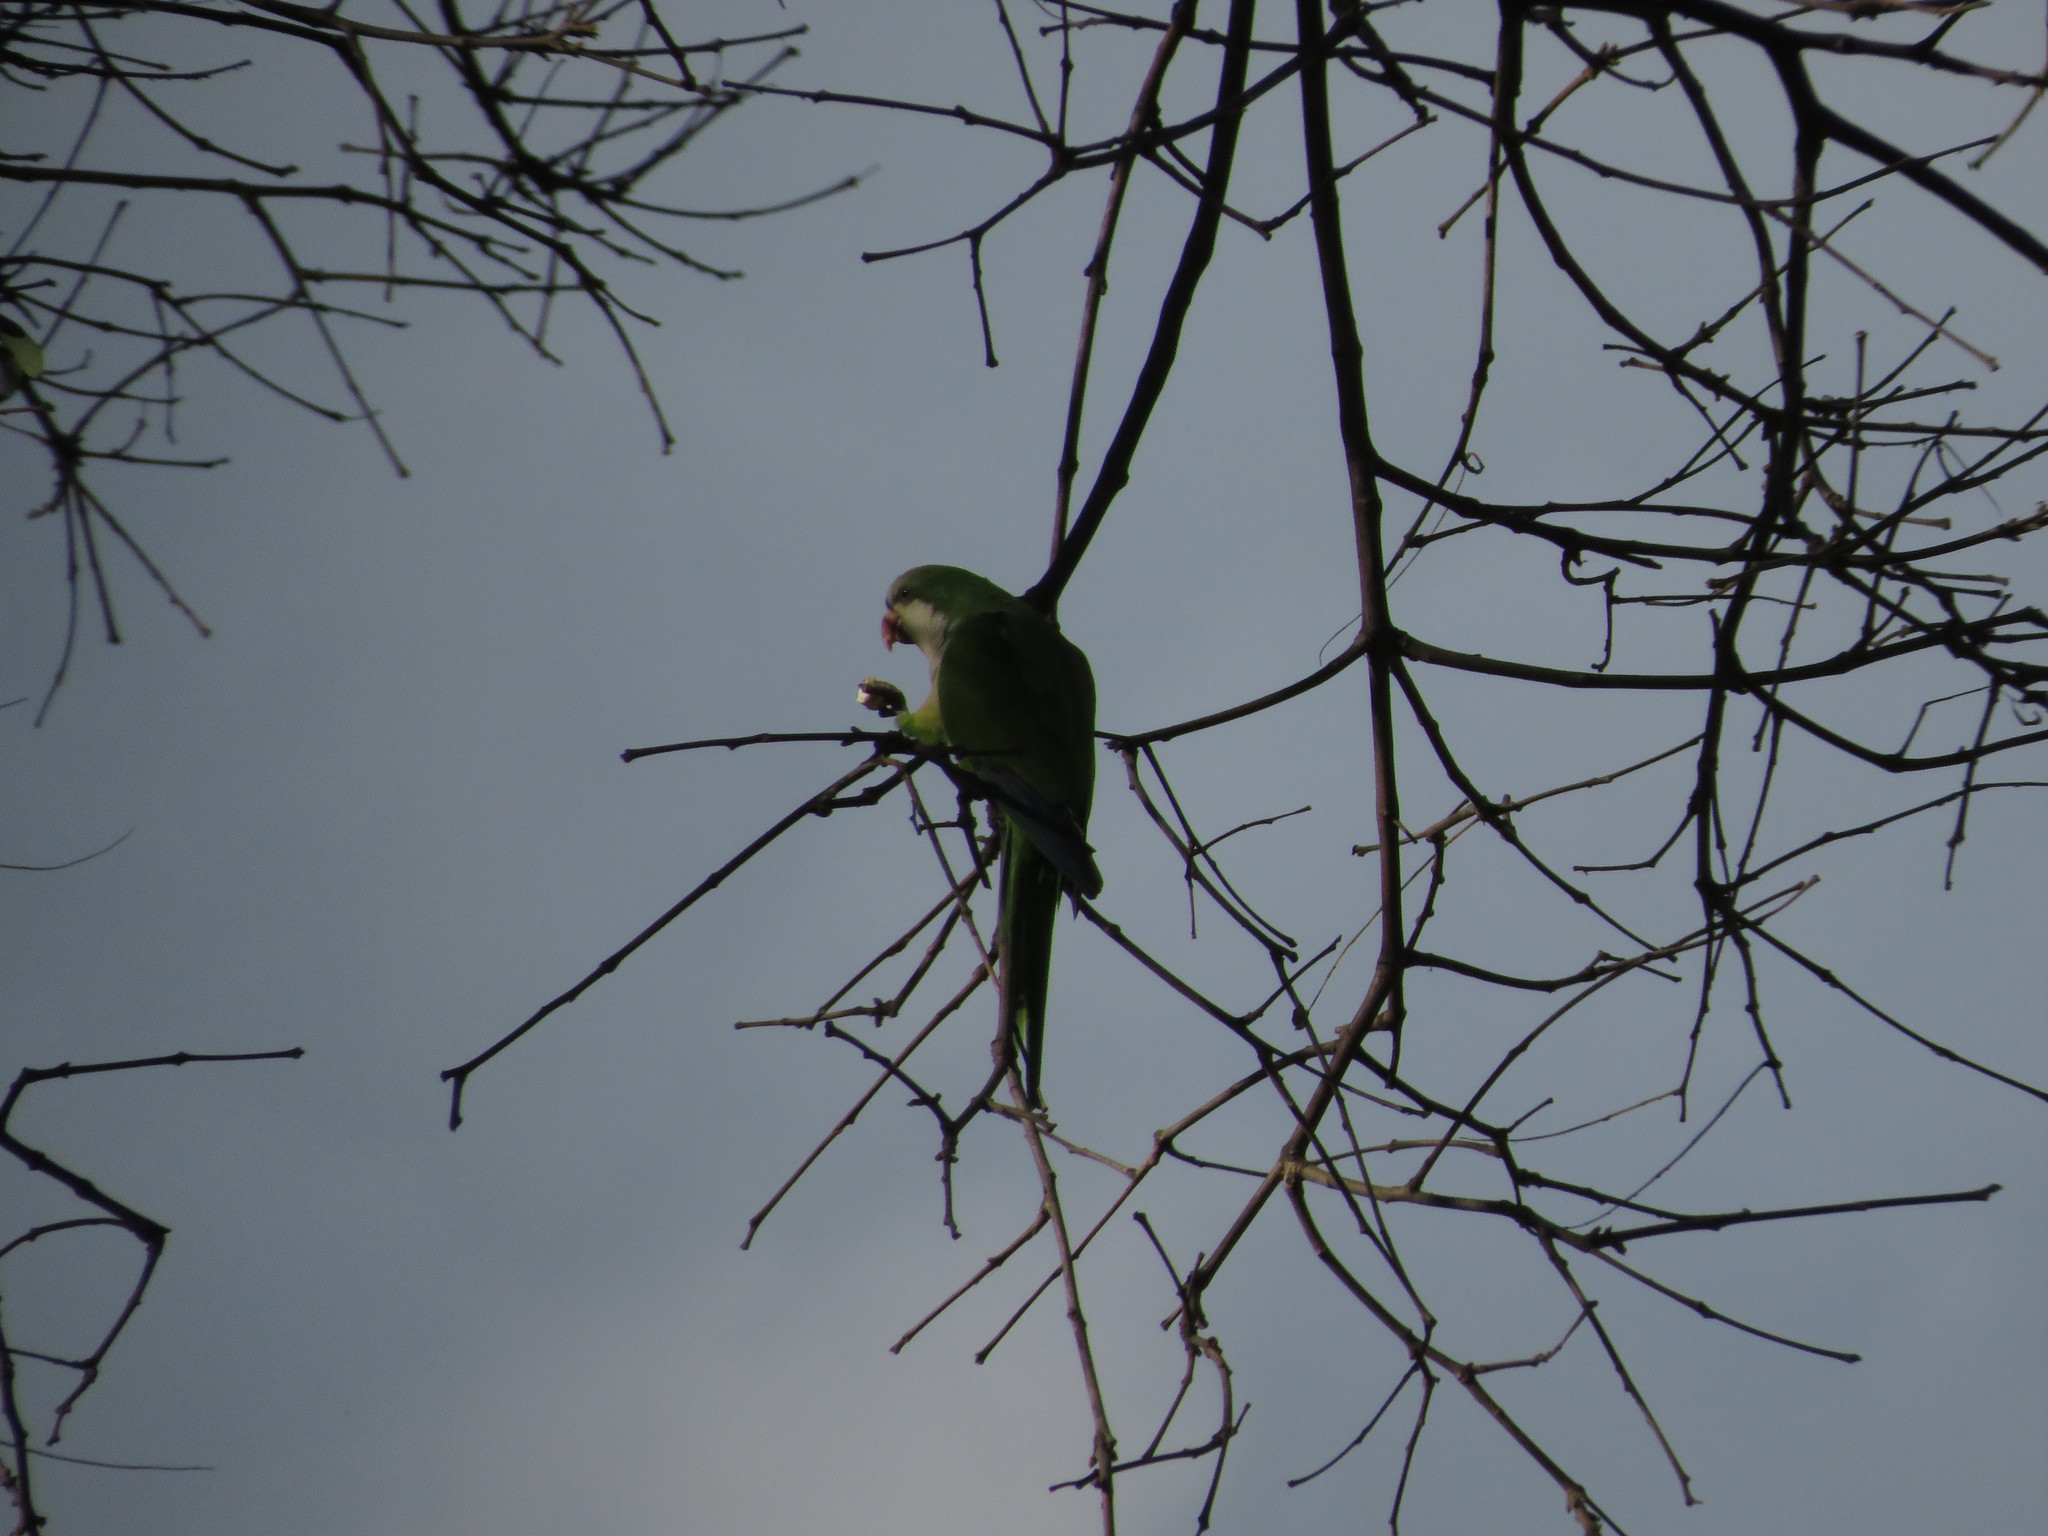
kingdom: Animalia
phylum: Chordata
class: Aves
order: Psittaciformes
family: Psittacidae
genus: Myiopsitta
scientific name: Myiopsitta monachus
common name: Monk parakeet
